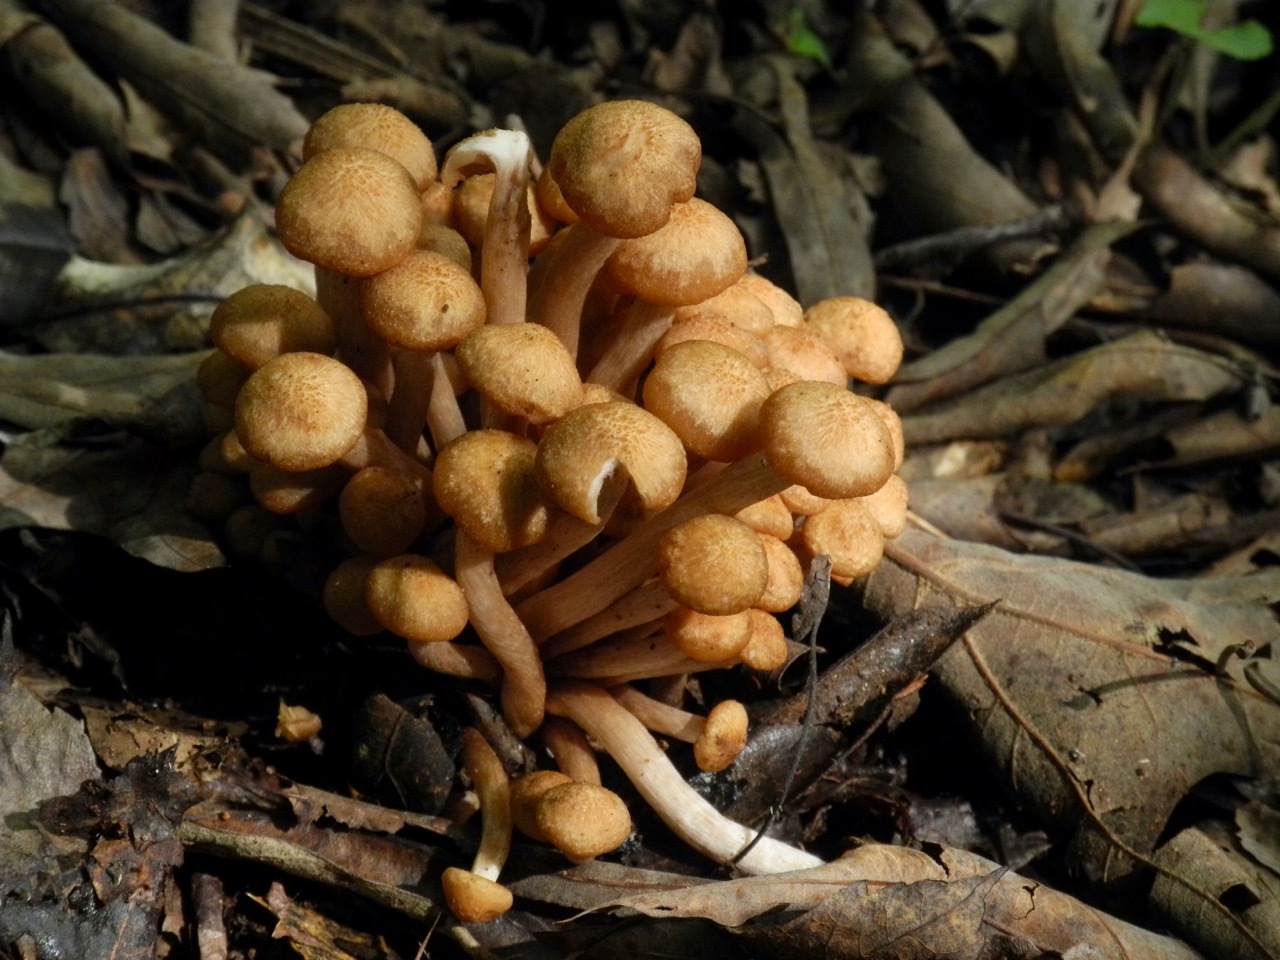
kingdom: Fungi
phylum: Basidiomycota
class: Agaricomycetes
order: Agaricales
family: Physalacriaceae
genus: Desarmillaria
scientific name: Desarmillaria caespitosa
